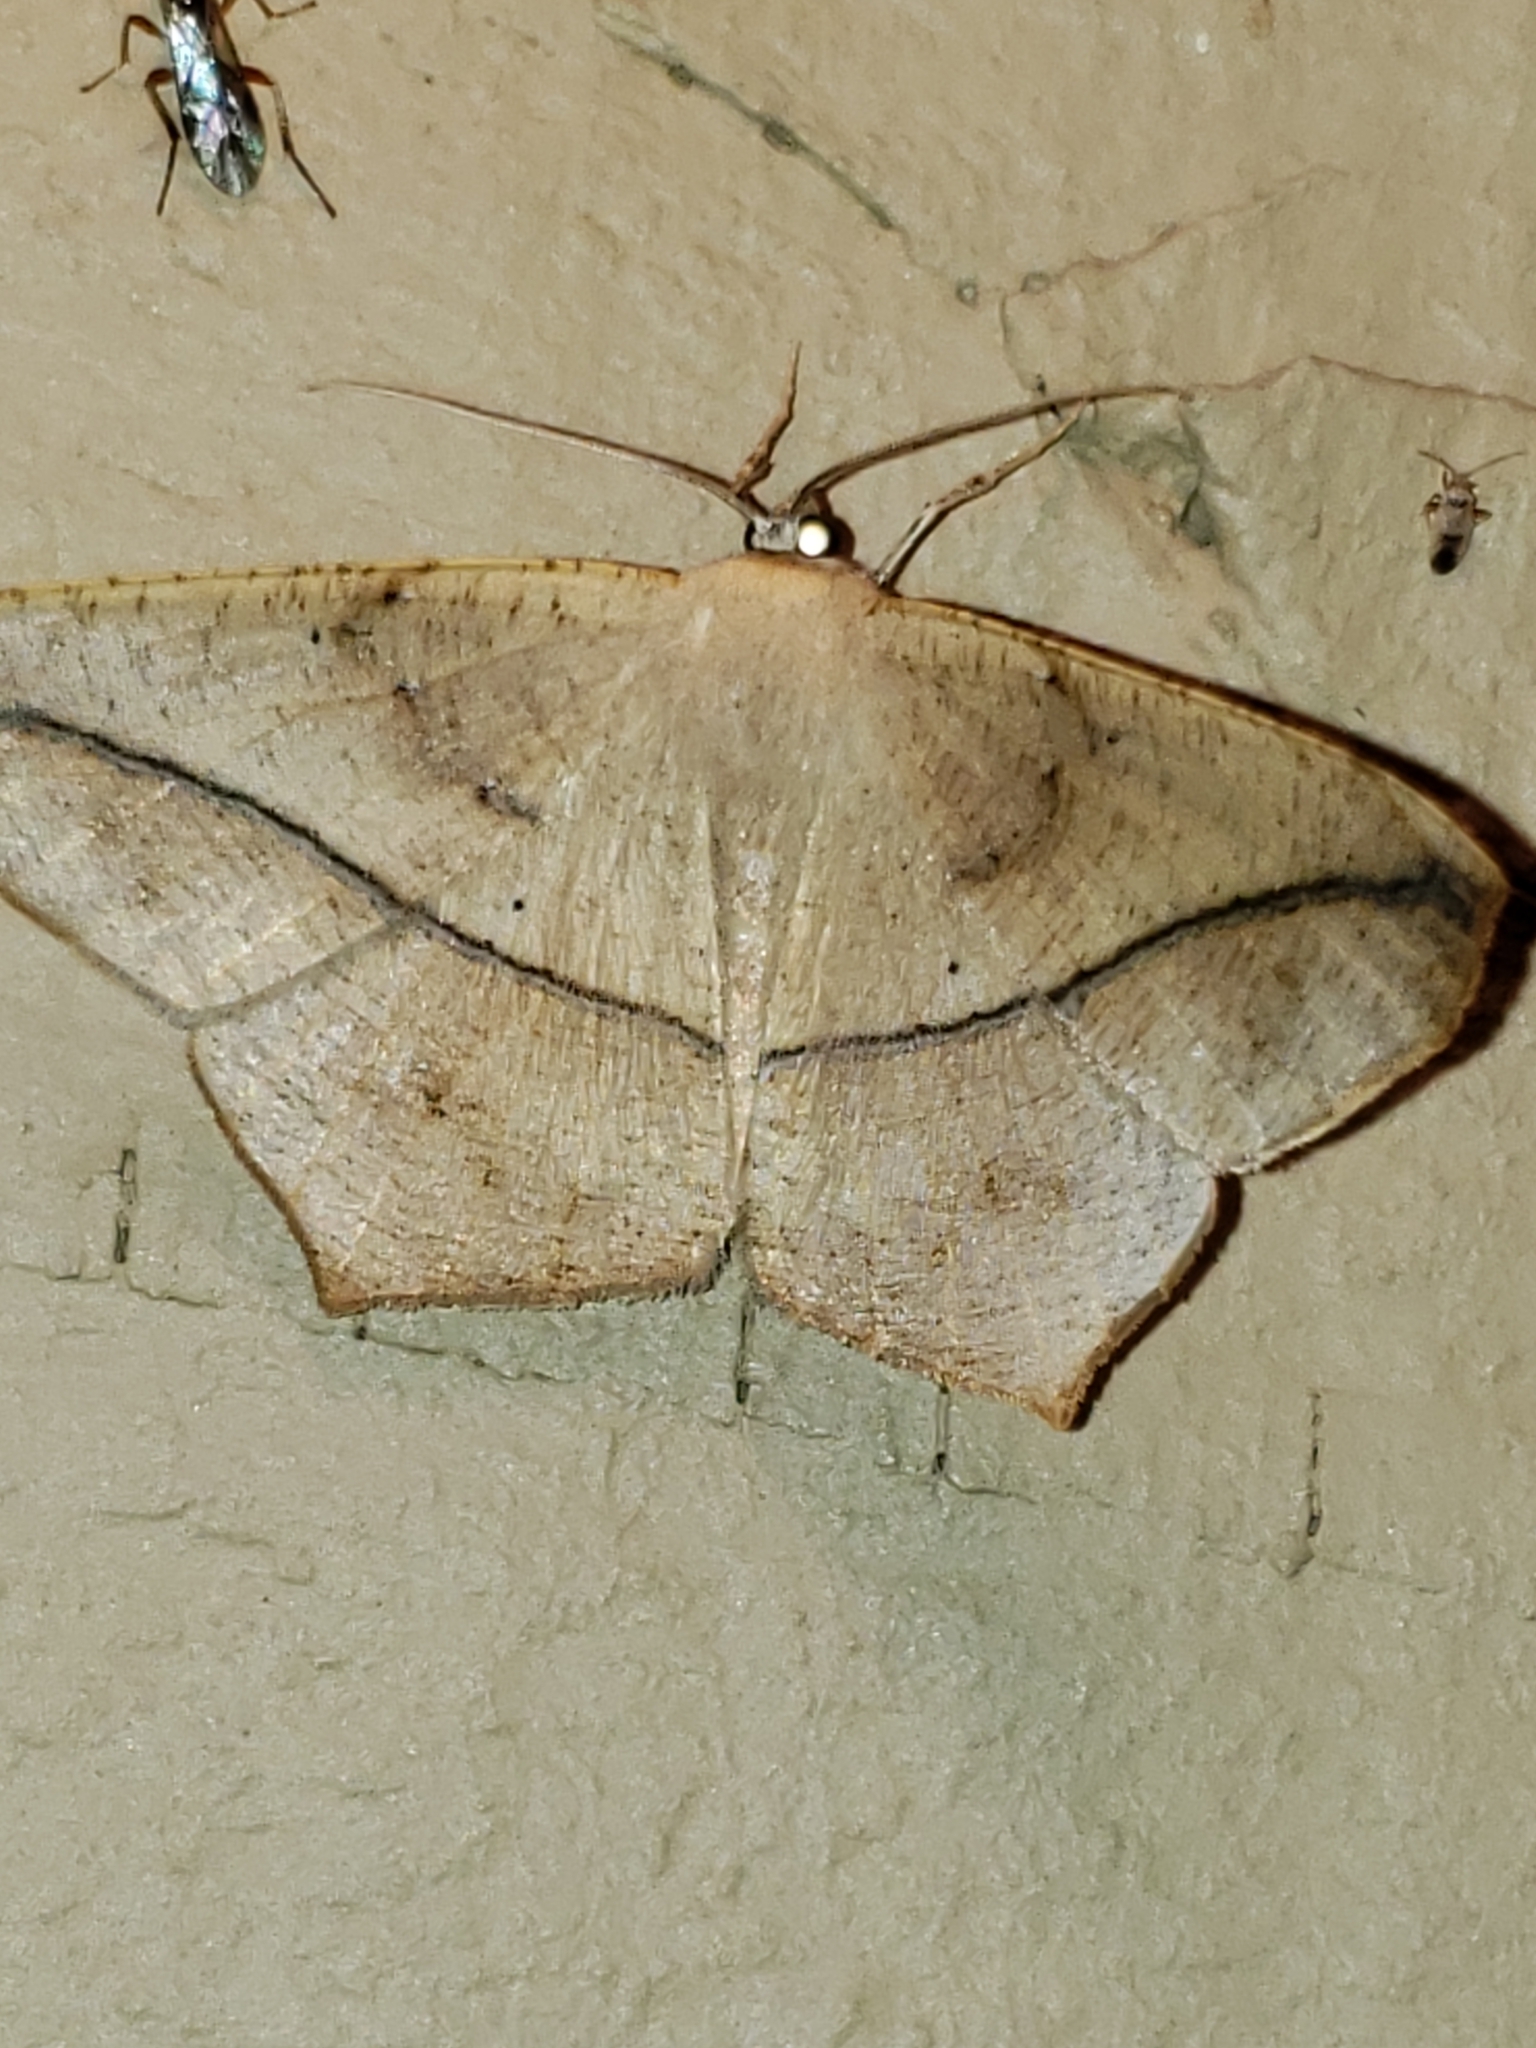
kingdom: Animalia
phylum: Arthropoda
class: Insecta
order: Lepidoptera
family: Geometridae
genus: Prochoerodes
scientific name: Prochoerodes lineola
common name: Large maple spanworm
